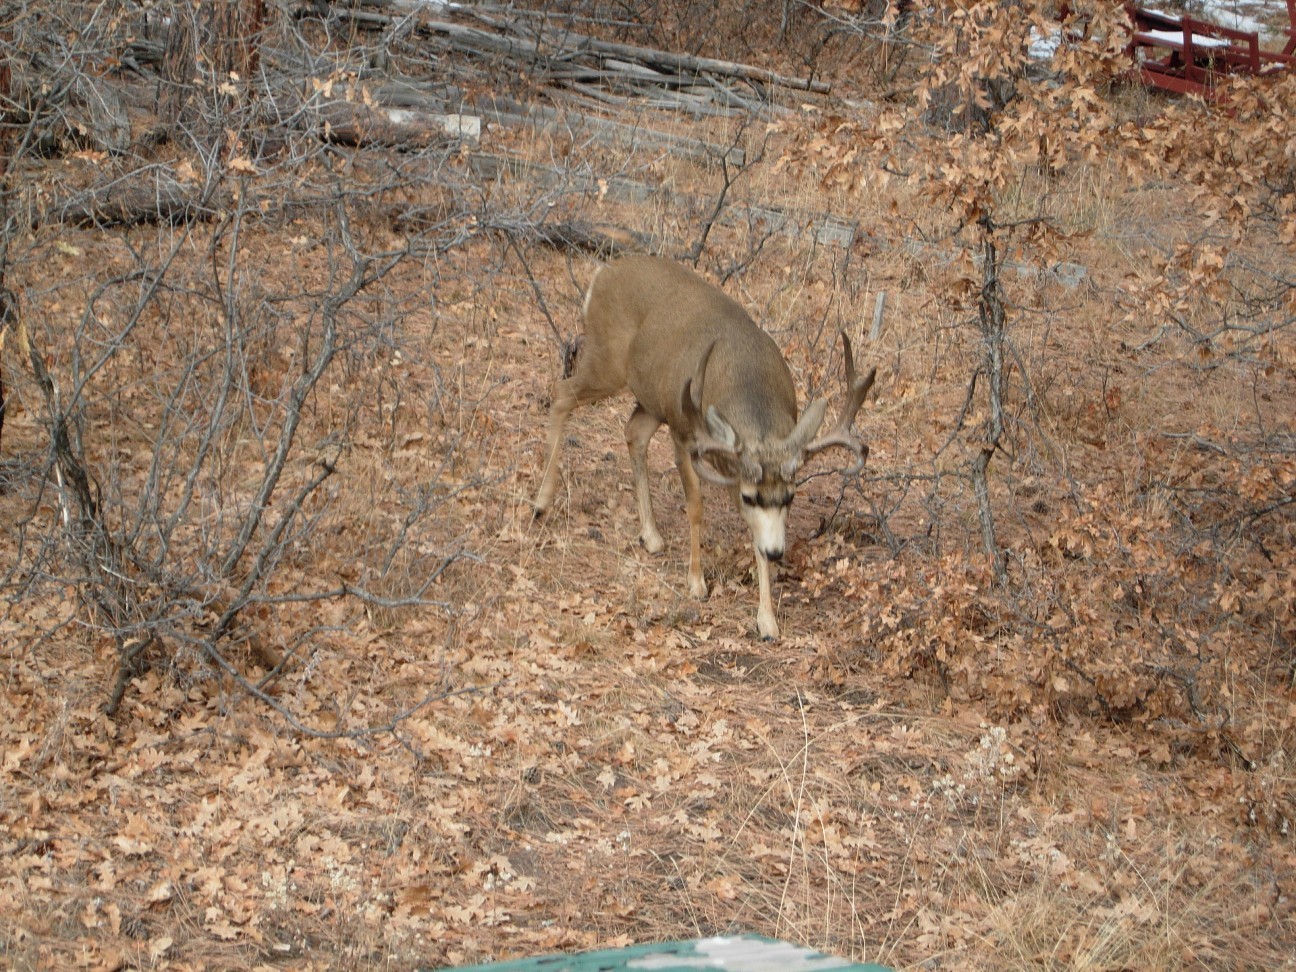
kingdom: Animalia
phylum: Chordata
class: Mammalia
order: Artiodactyla
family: Cervidae
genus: Odocoileus
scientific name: Odocoileus hemionus
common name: Mule deer
